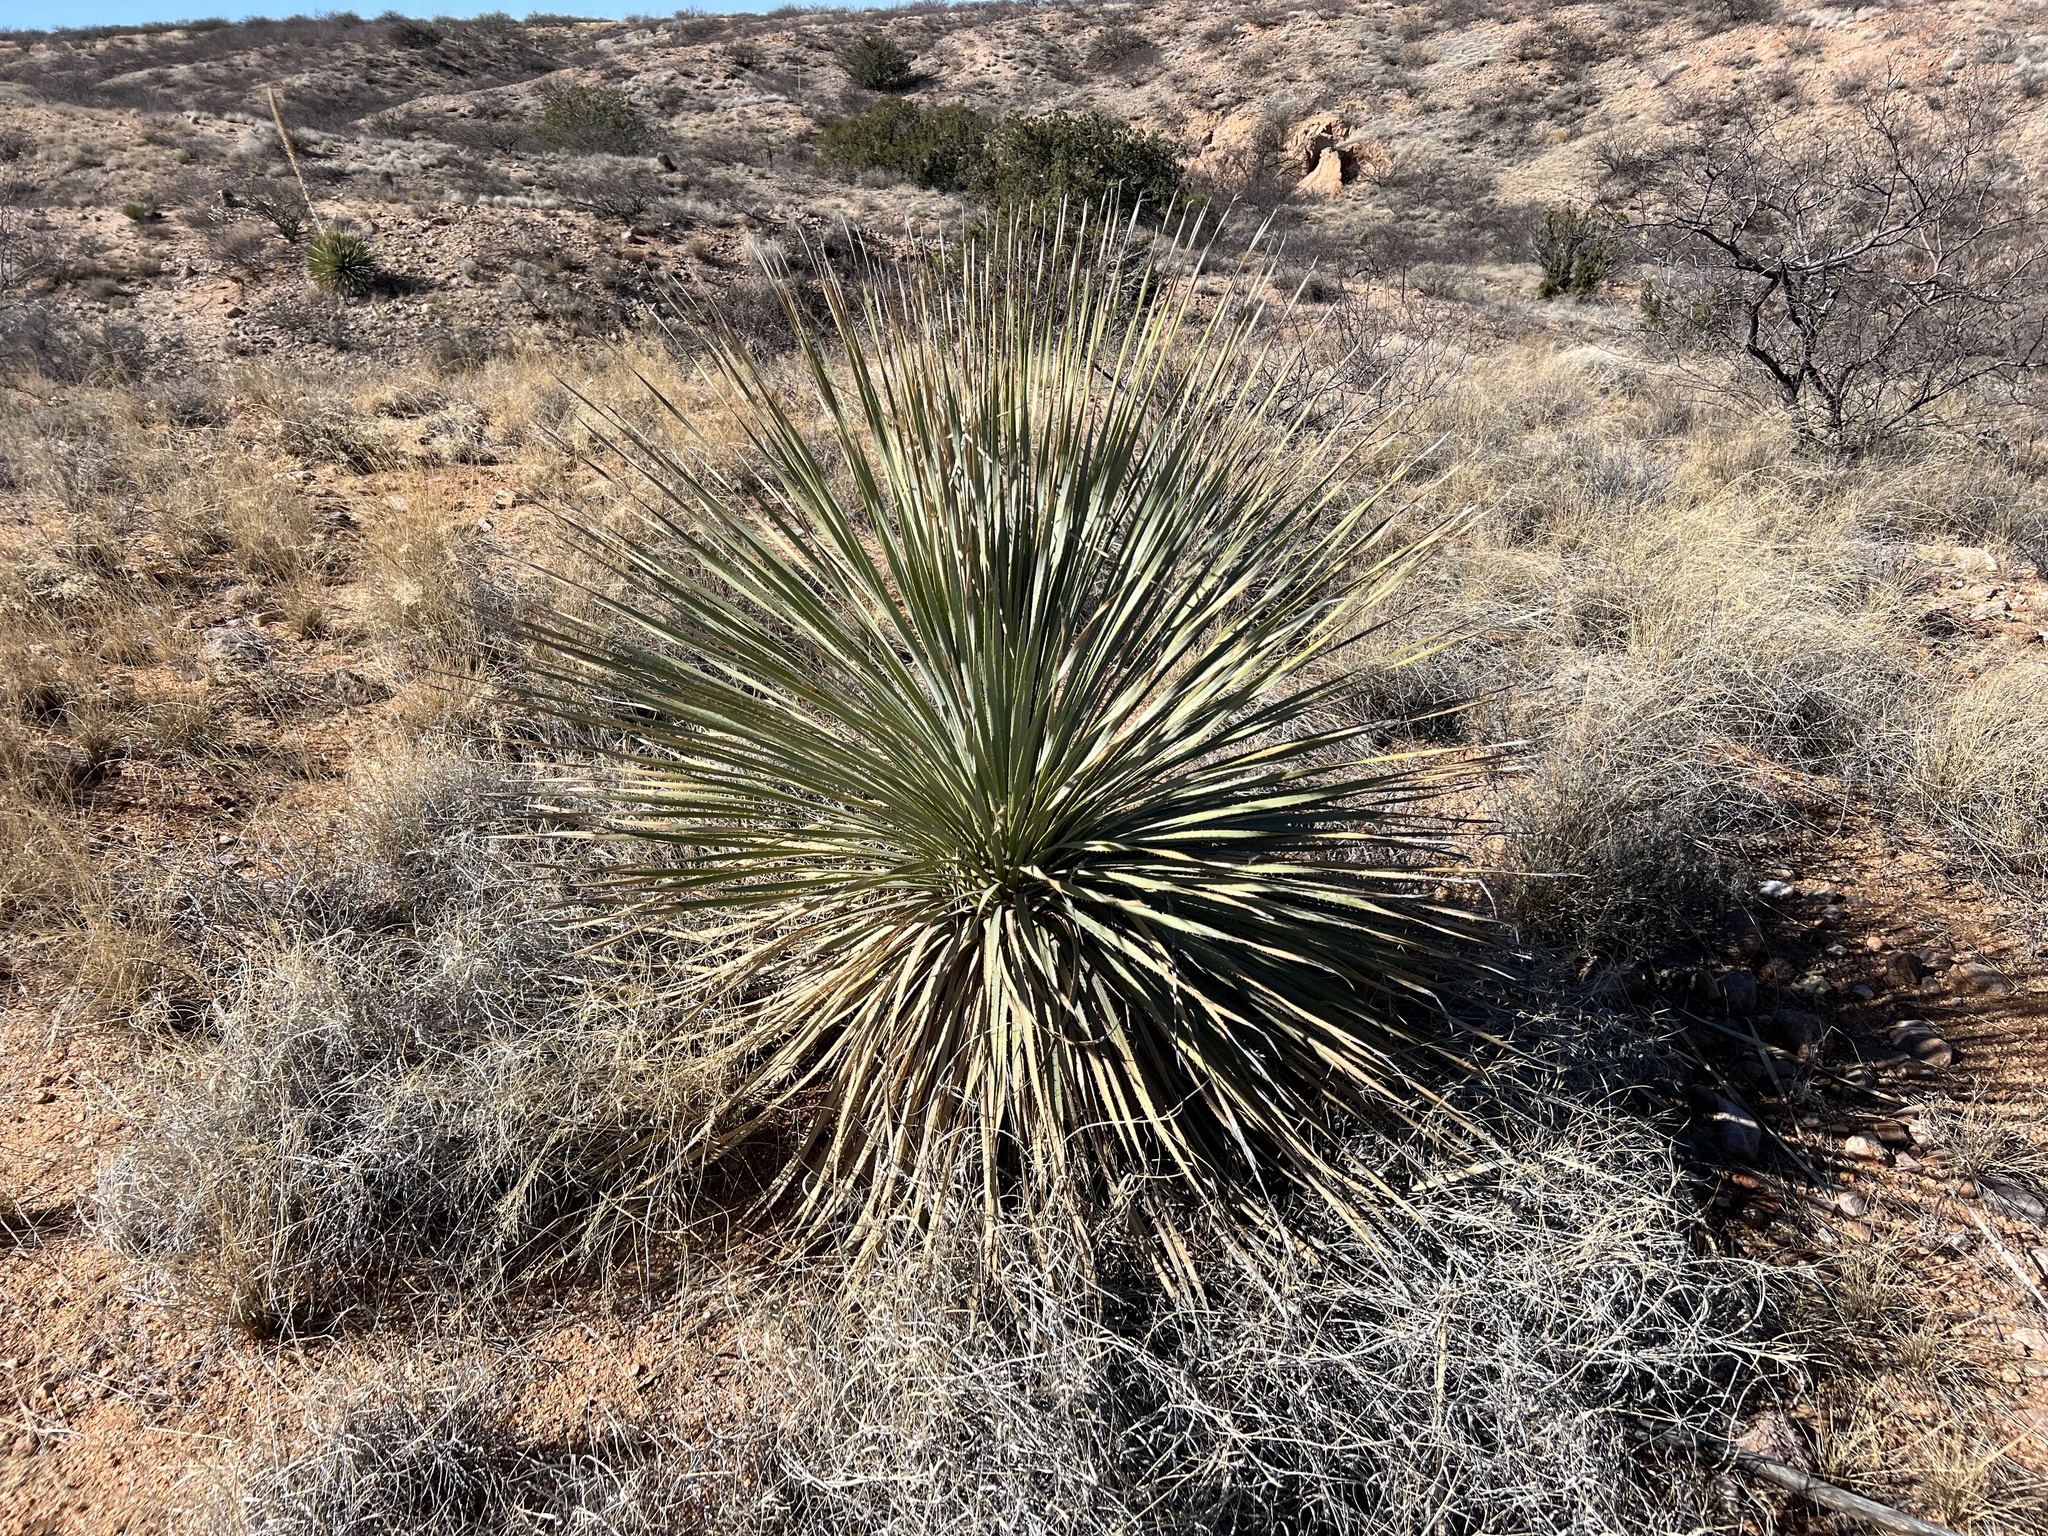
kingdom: Plantae
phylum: Tracheophyta
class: Liliopsida
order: Asparagales
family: Asparagaceae
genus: Dasylirion
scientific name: Dasylirion wheeleri
